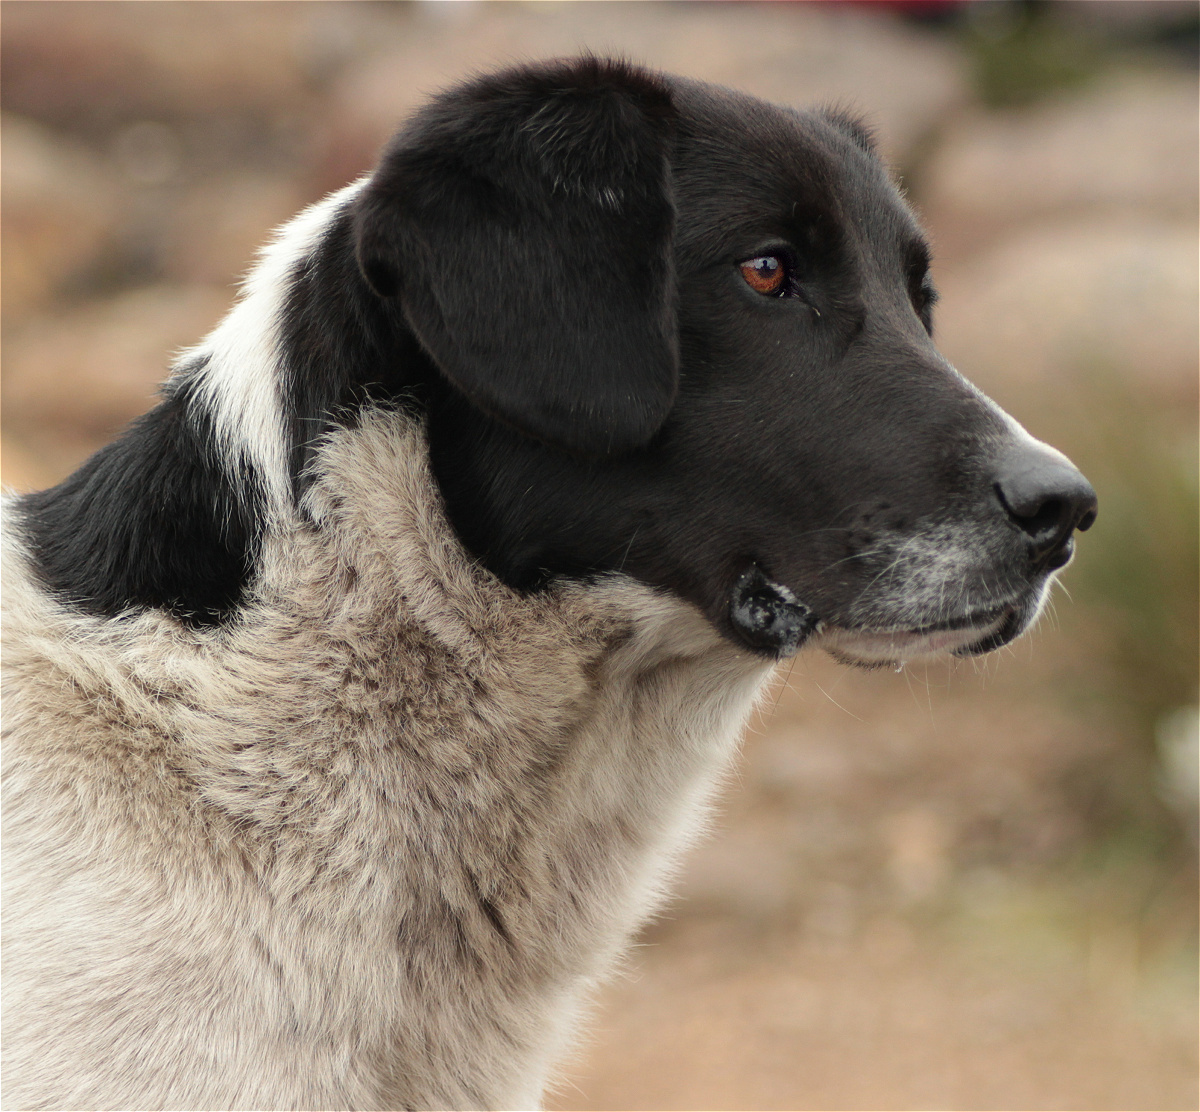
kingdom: Animalia
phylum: Chordata
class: Mammalia
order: Carnivora
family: Canidae
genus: Canis
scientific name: Canis lupus
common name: Gray wolf
